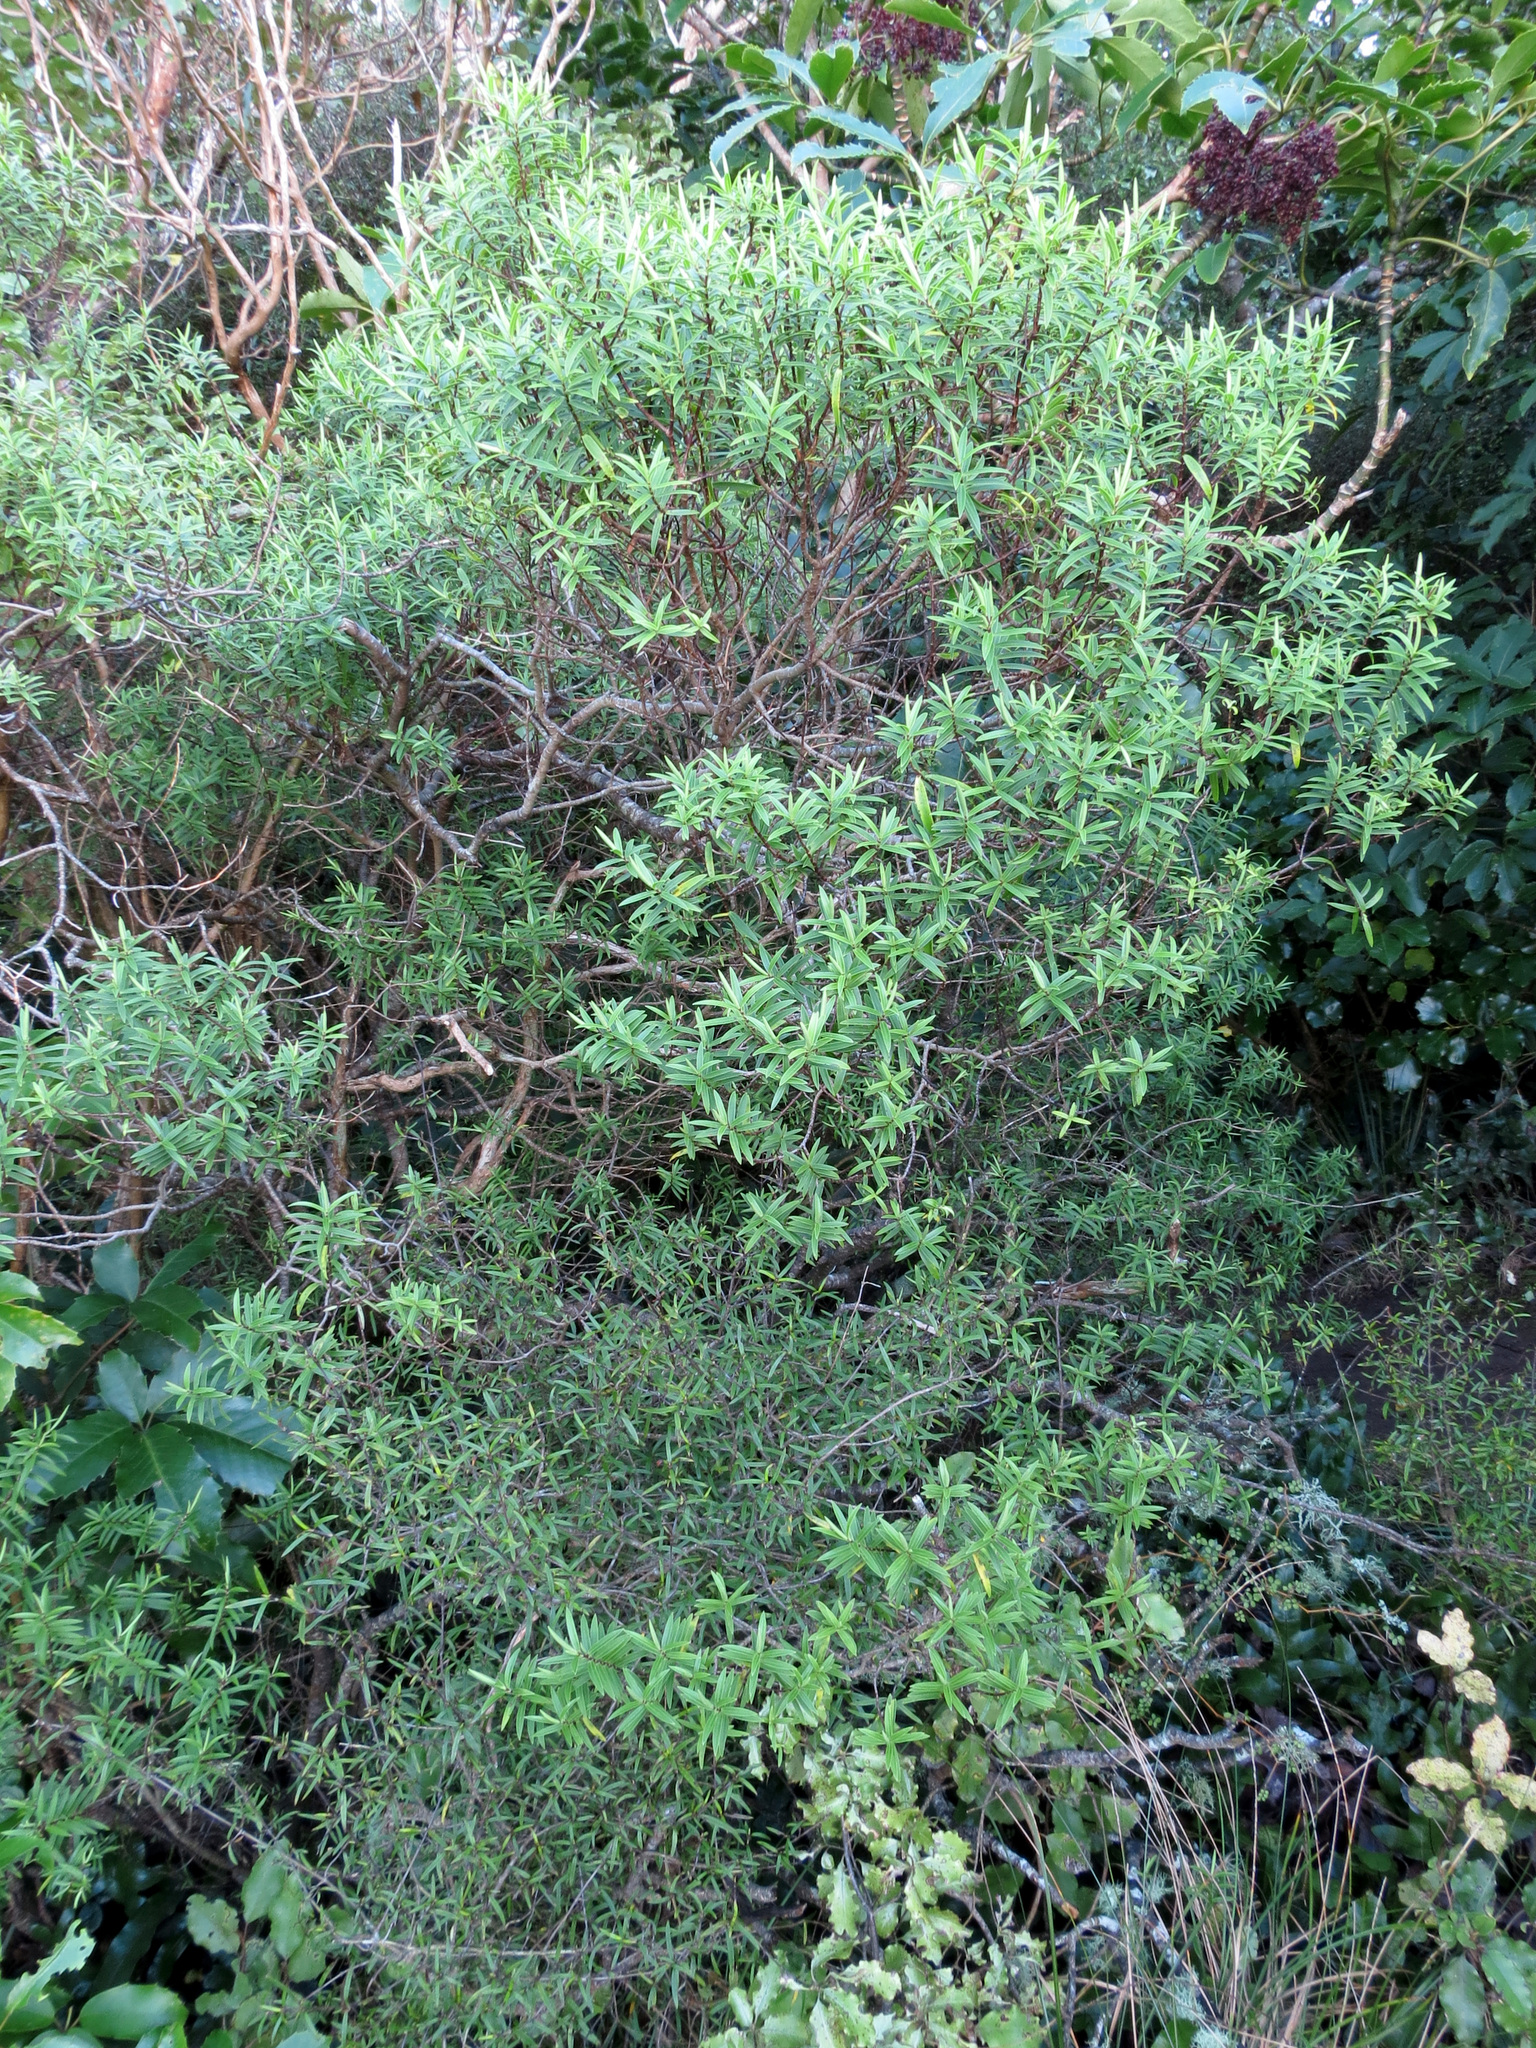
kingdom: Plantae
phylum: Tracheophyta
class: Magnoliopsida
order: Lamiales
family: Plantaginaceae
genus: Veronica
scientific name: Veronica strictissima
